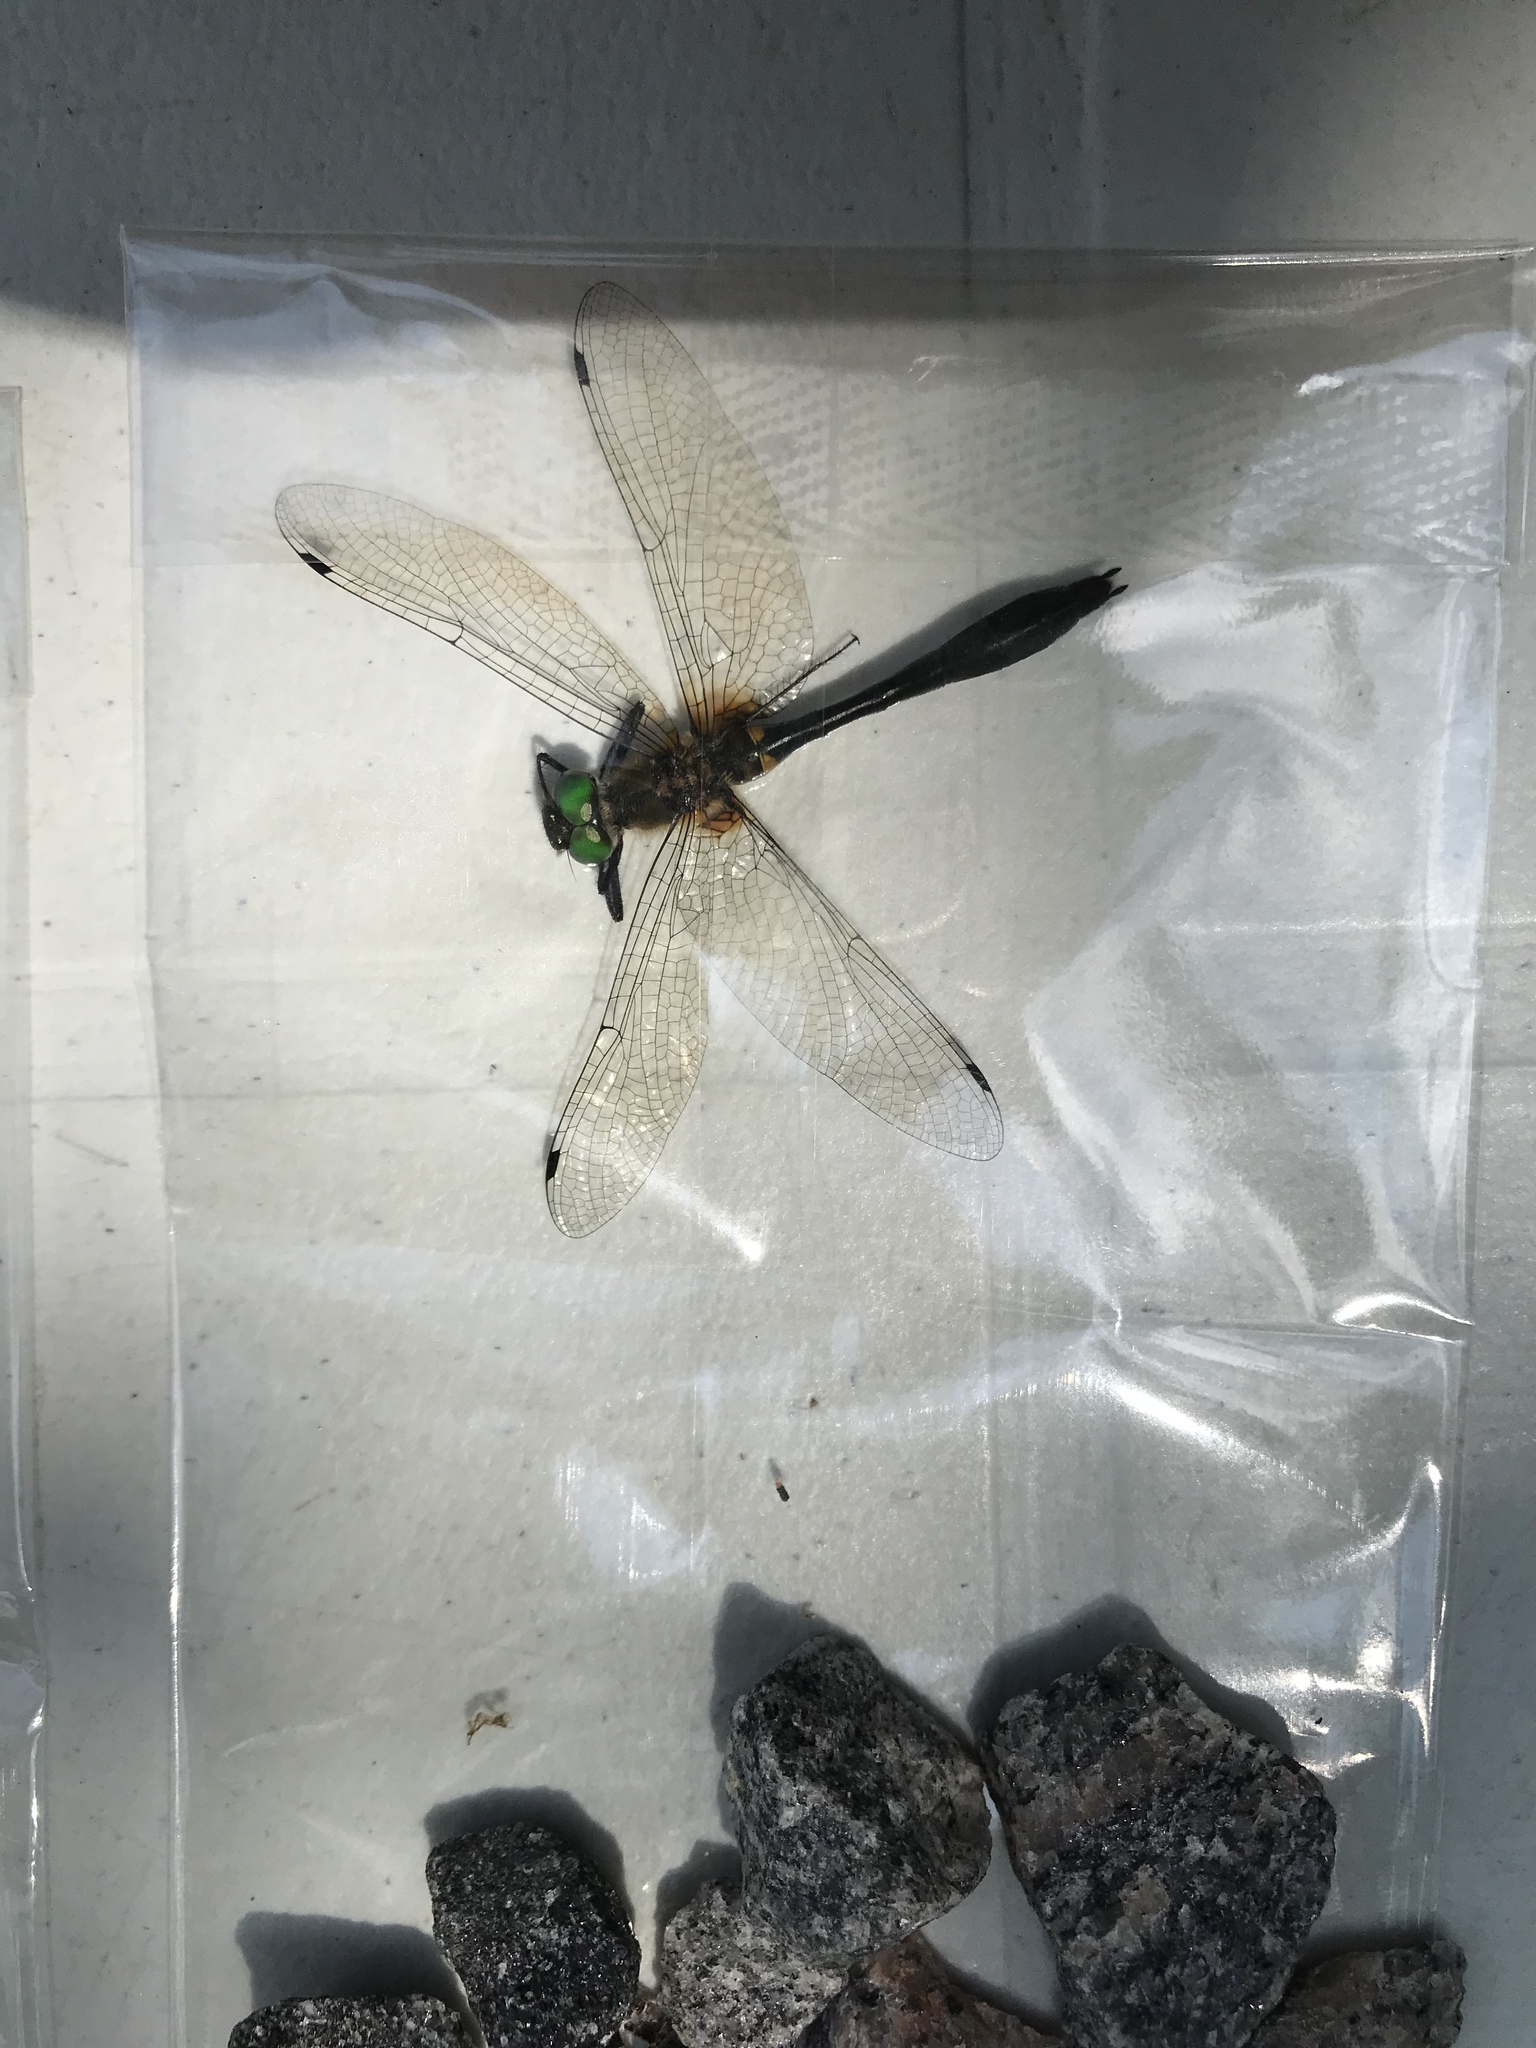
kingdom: Animalia
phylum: Arthropoda
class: Insecta
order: Odonata
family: Corduliidae
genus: Dorocordulia
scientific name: Dorocordulia libera
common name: Racket-tailed emerald
